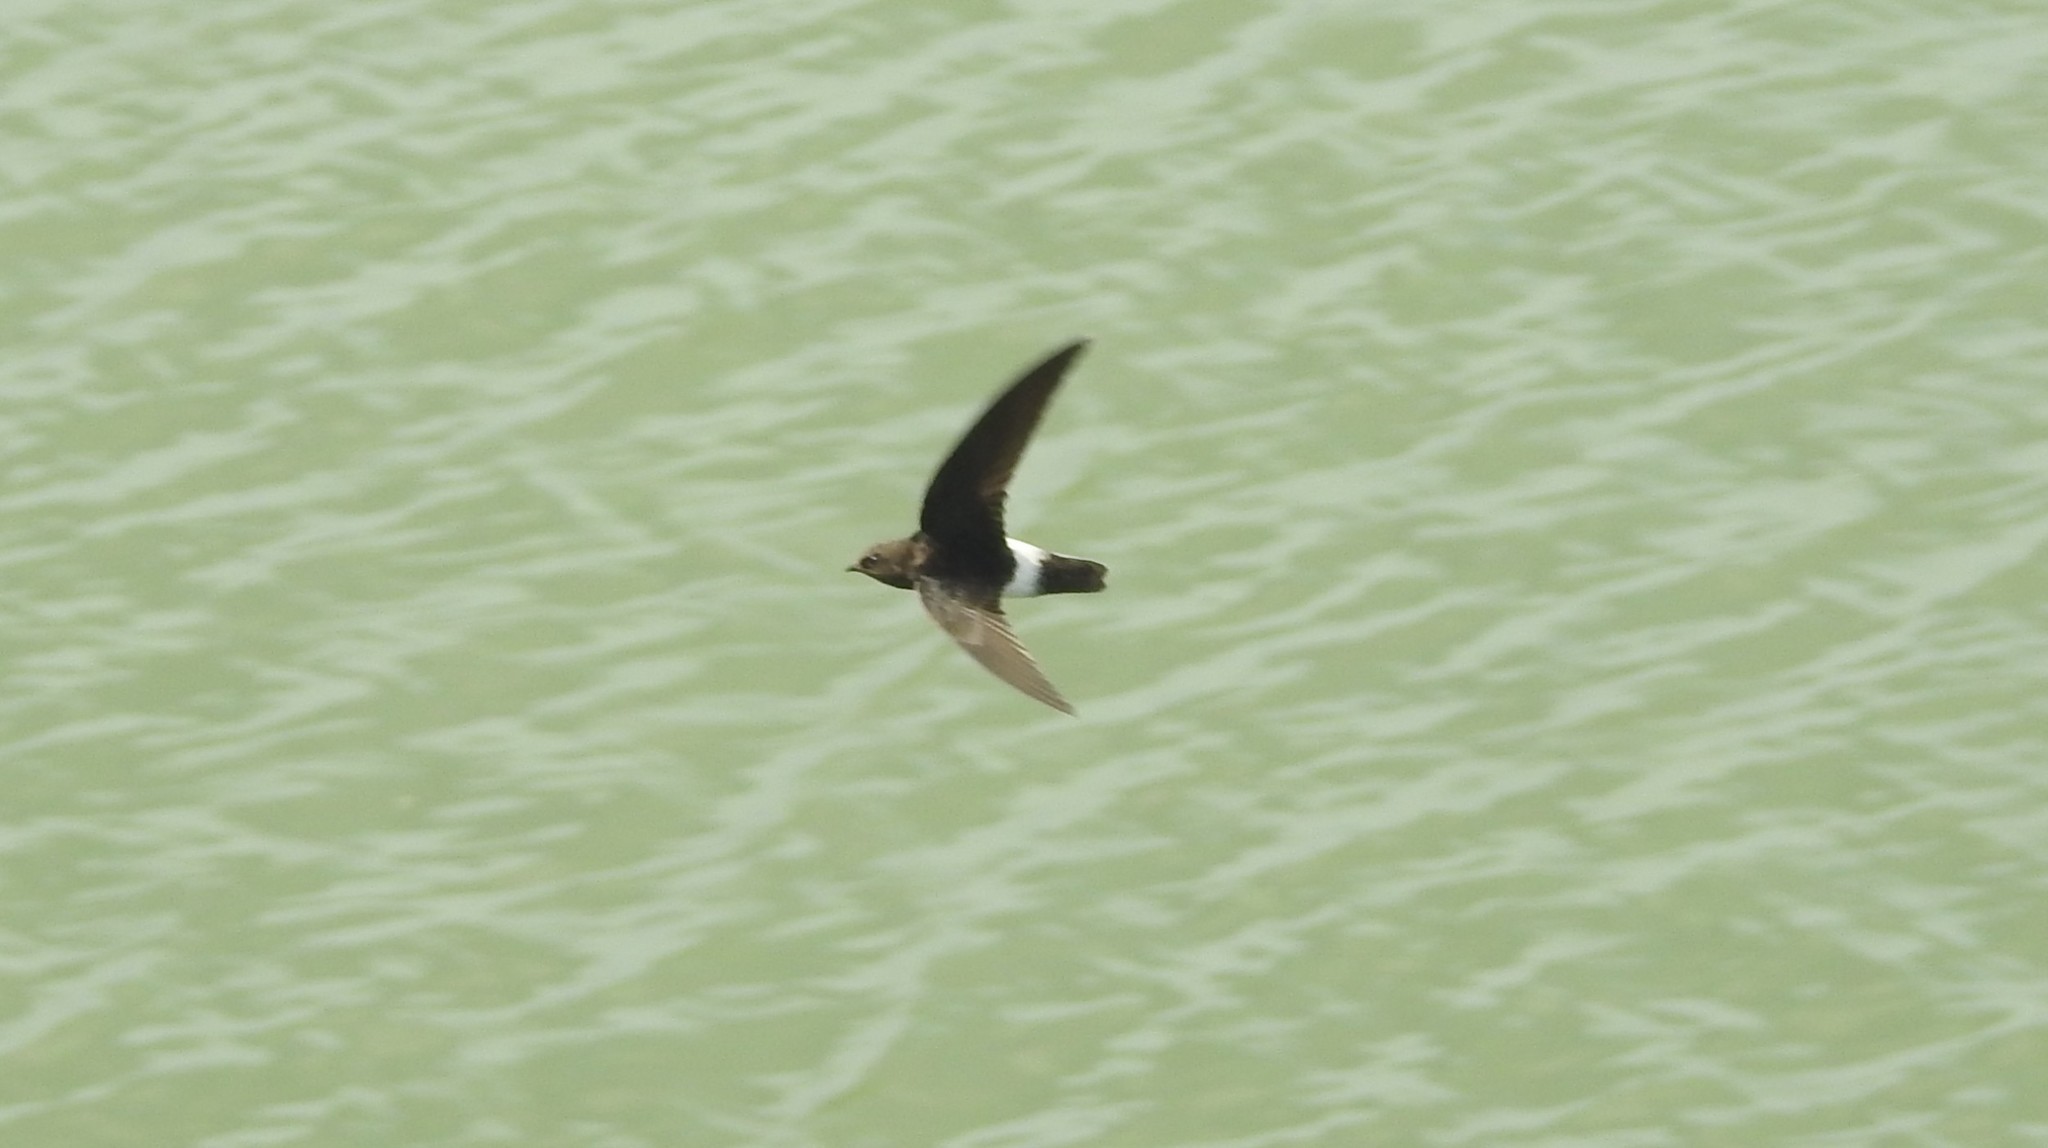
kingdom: Animalia
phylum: Chordata
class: Aves
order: Apodiformes
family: Apodidae
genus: Apus
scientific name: Apus affinis
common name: Little swift
